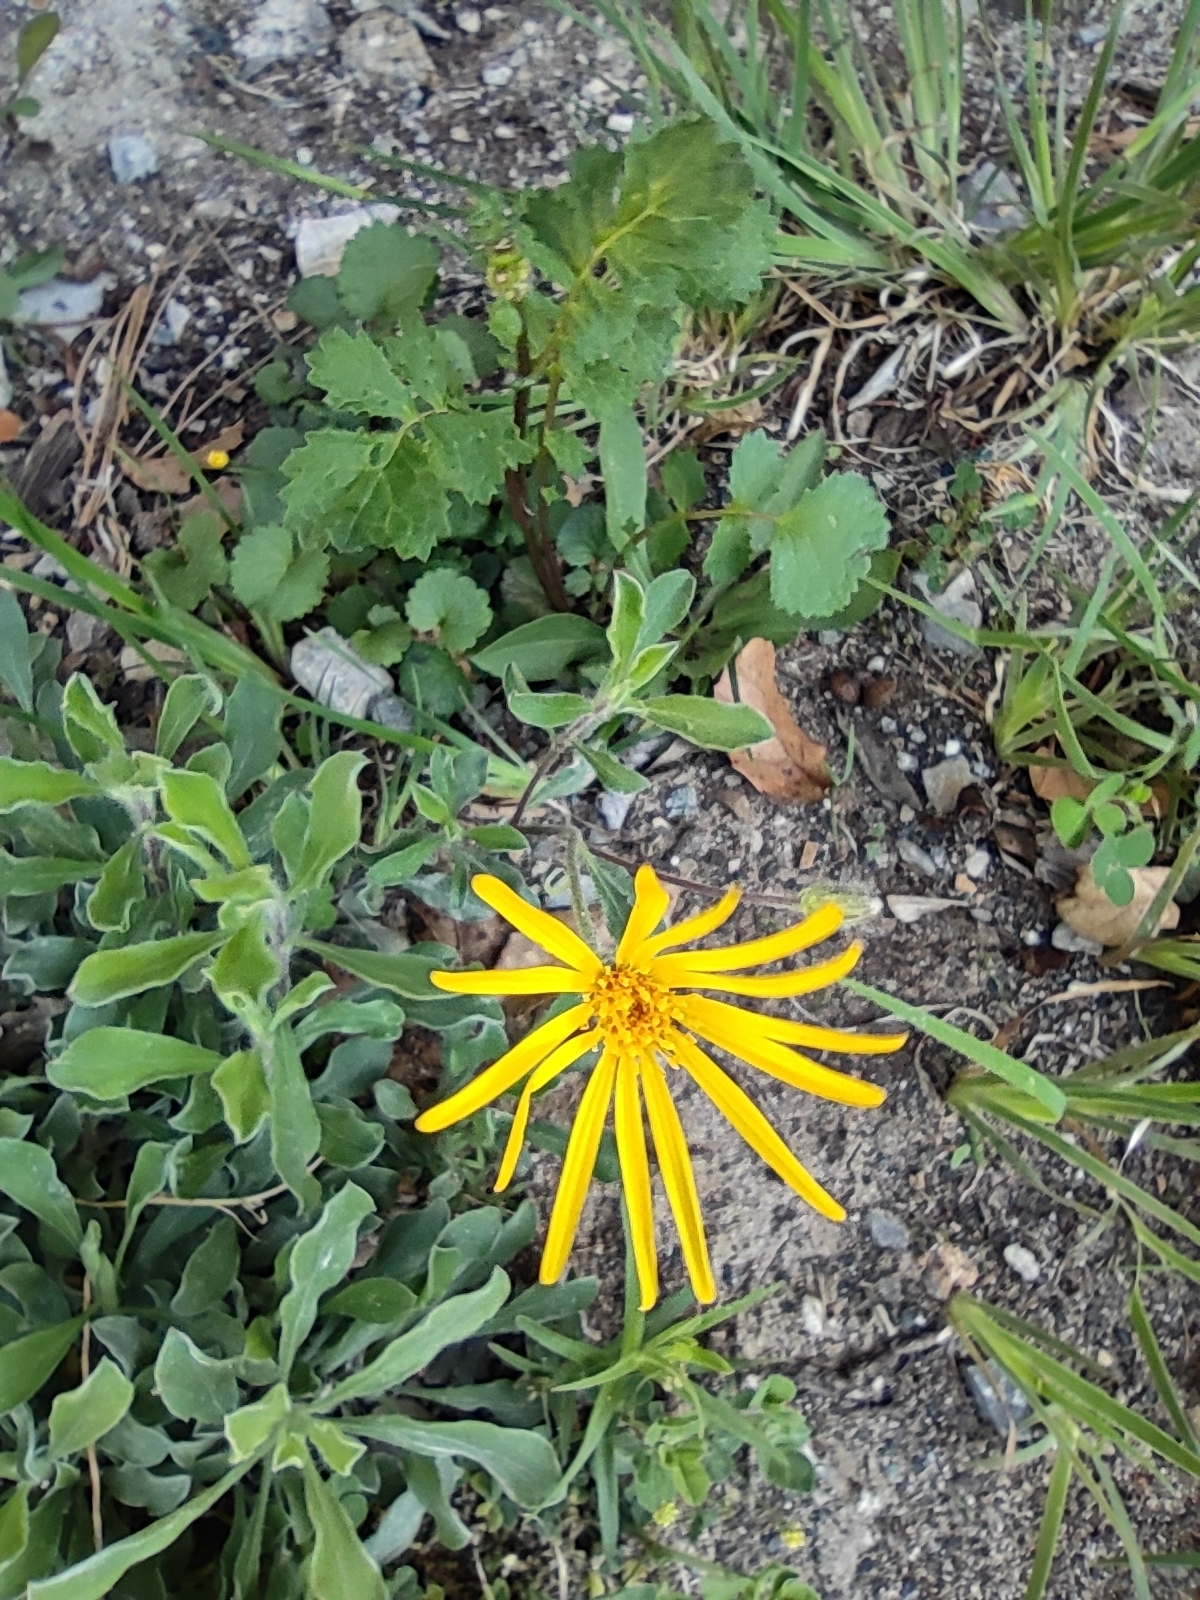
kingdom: Plantae
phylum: Tracheophyta
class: Magnoliopsida
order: Asterales
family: Asteraceae
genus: Heterotheca
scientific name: Heterotheca mucronata
